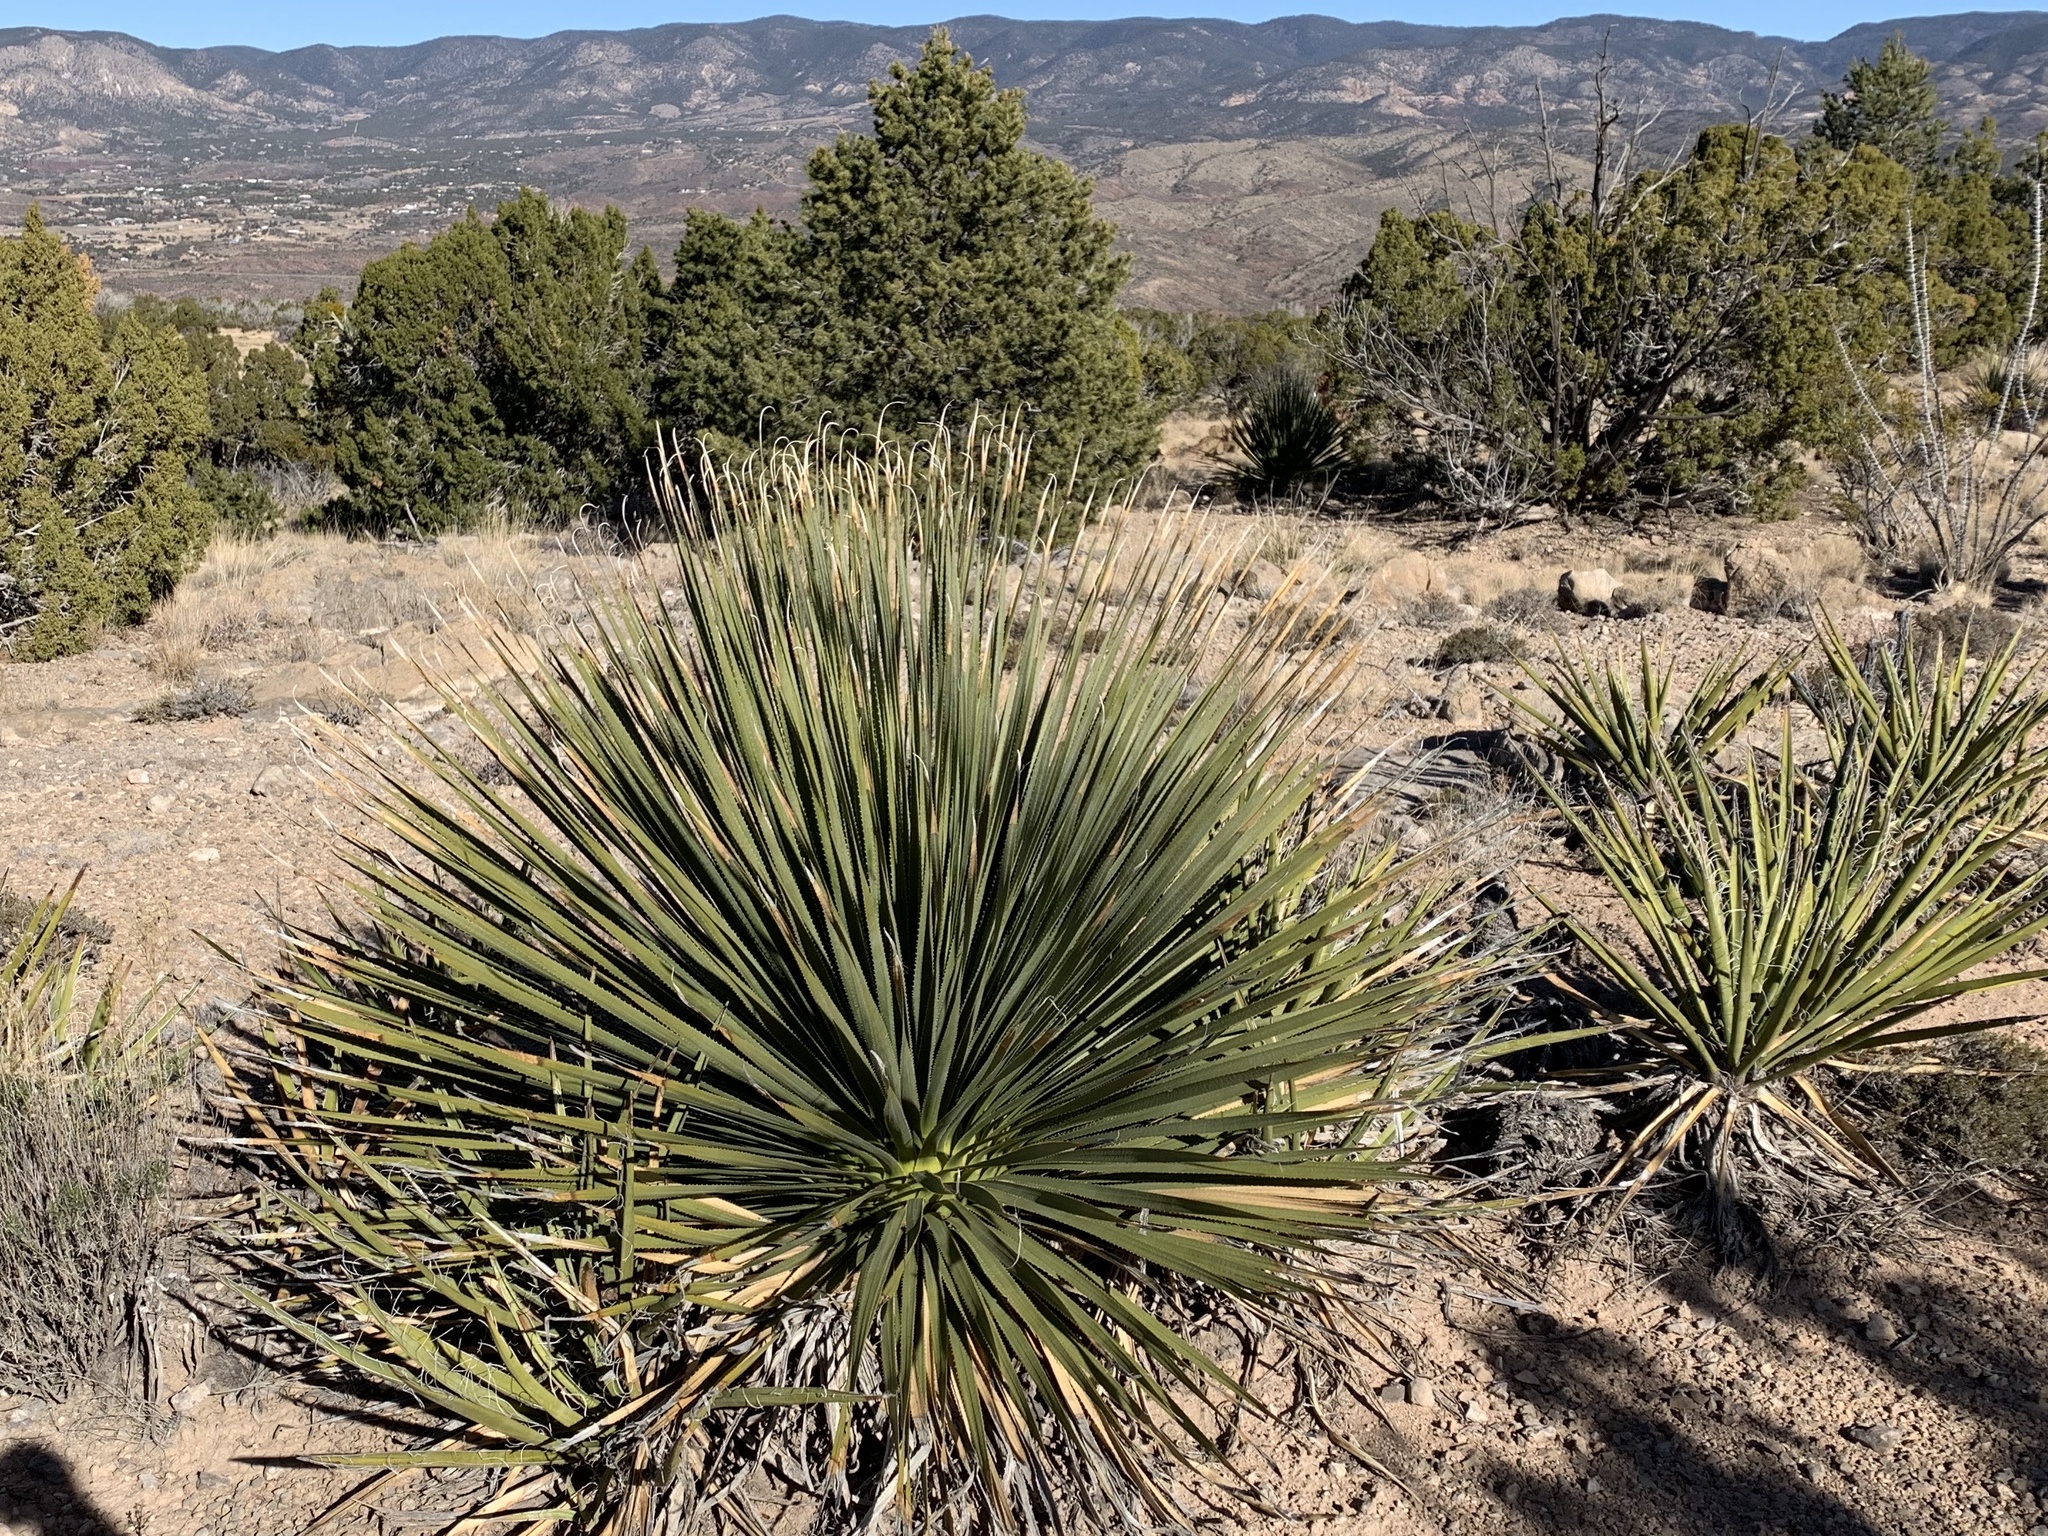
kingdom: Plantae
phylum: Tracheophyta
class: Liliopsida
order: Asparagales
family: Asparagaceae
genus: Dasylirion
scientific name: Dasylirion wheeleri
